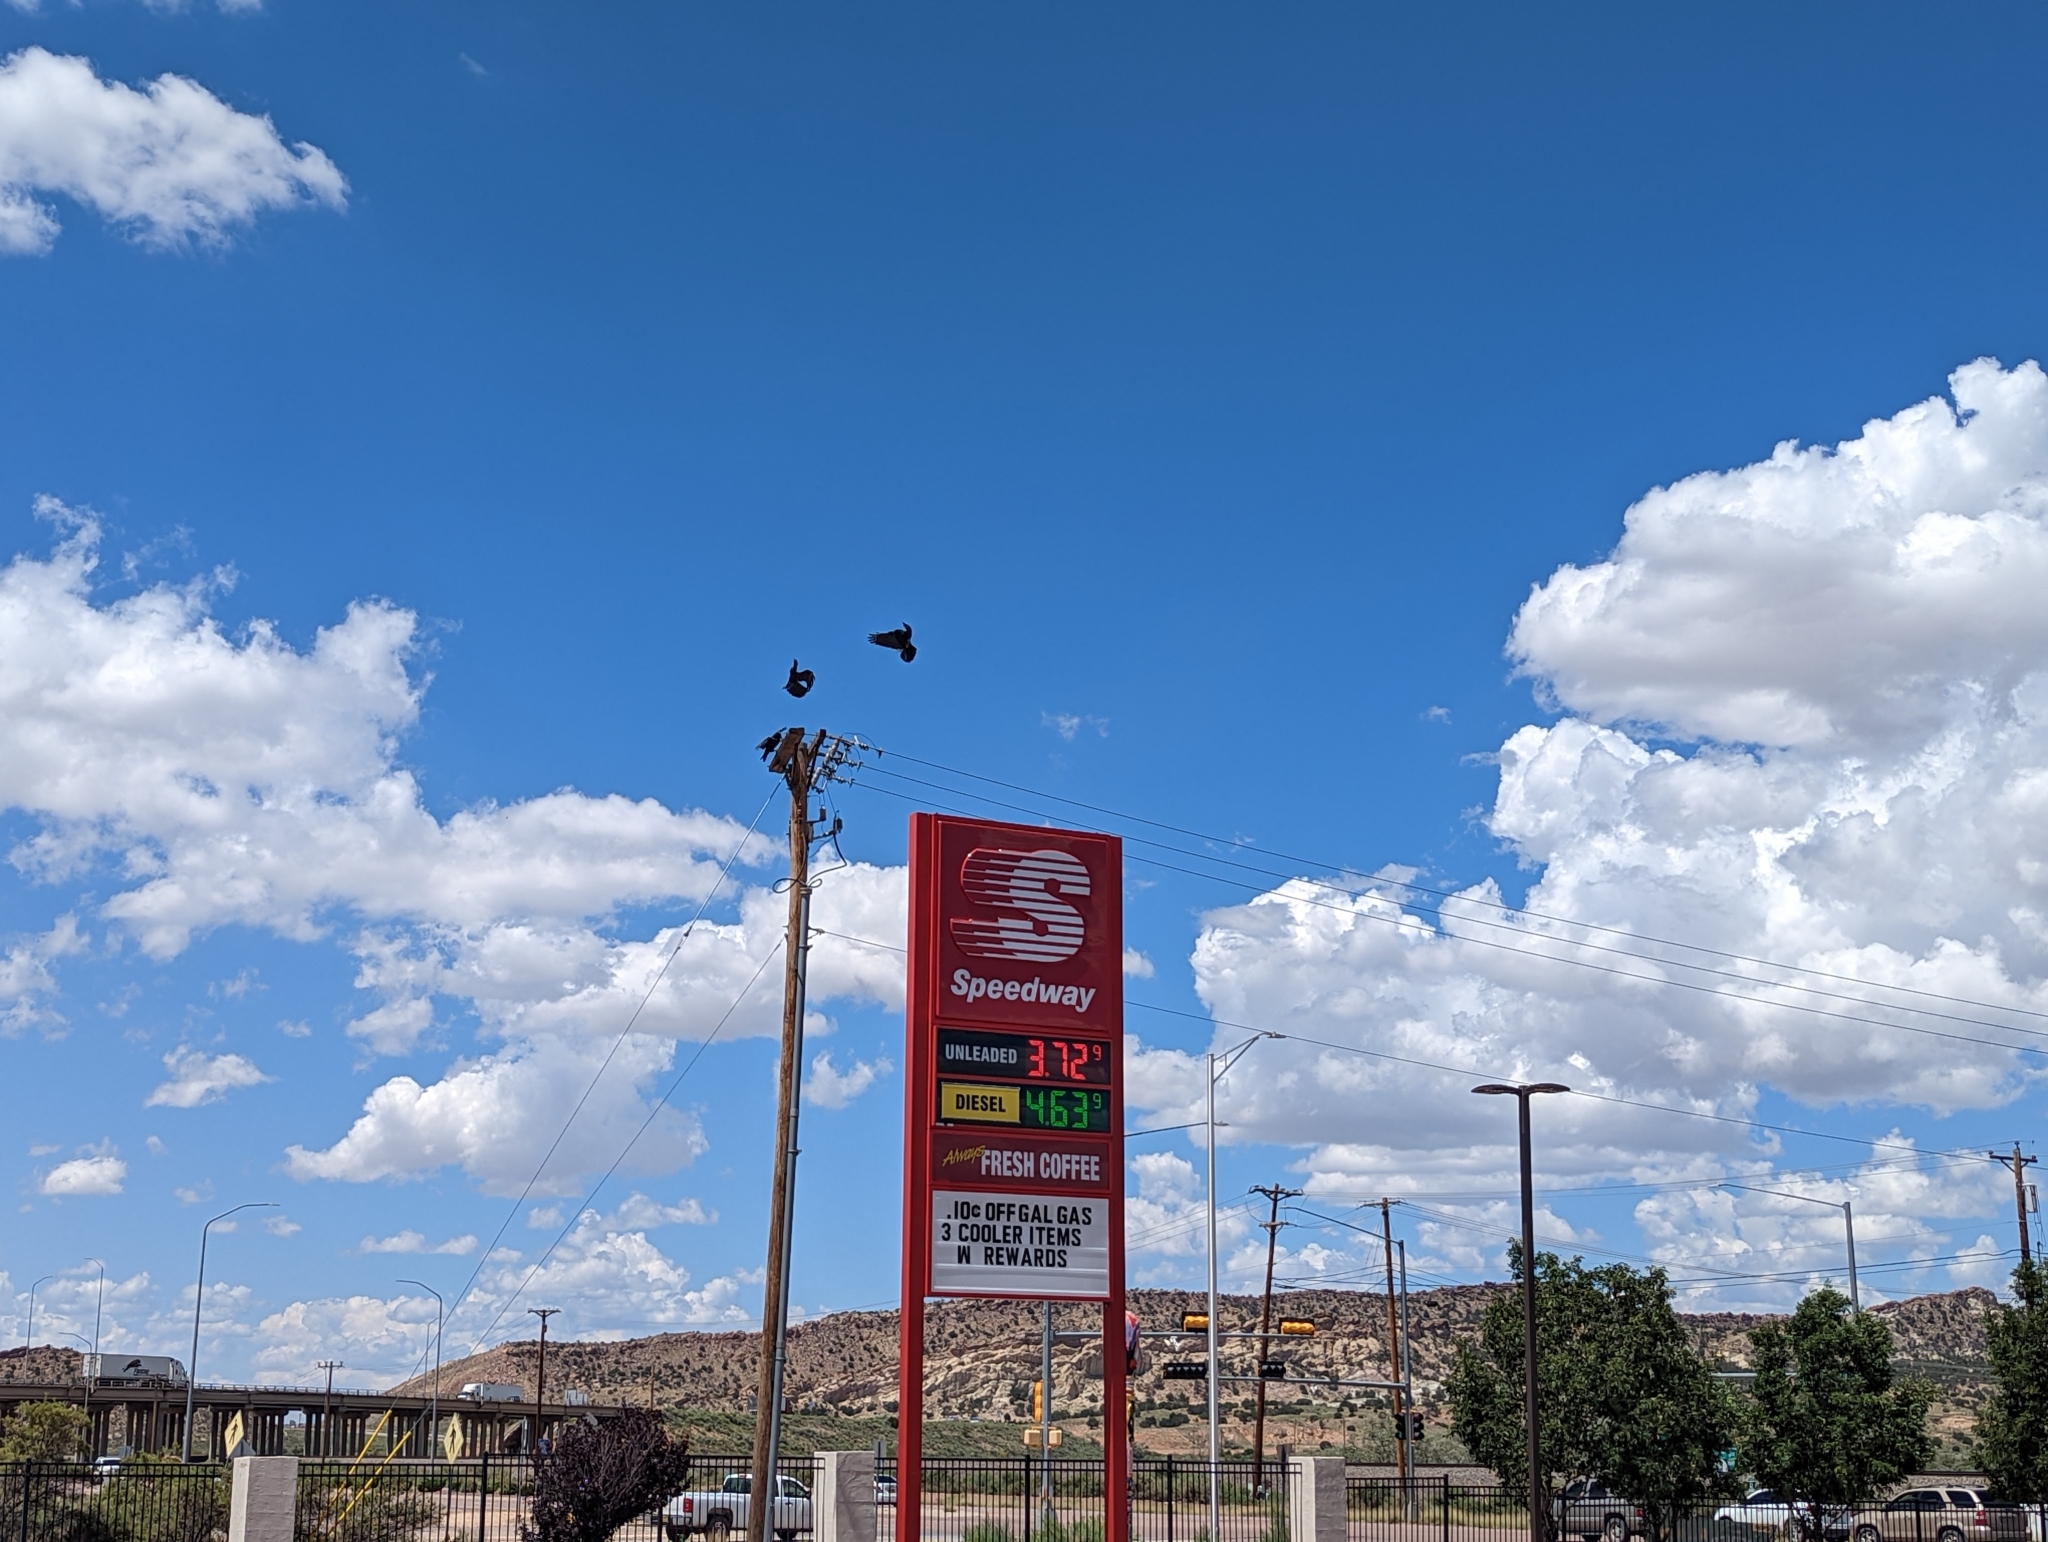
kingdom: Animalia
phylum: Chordata
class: Aves
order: Passeriformes
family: Corvidae
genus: Corvus
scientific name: Corvus corax
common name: Common raven
